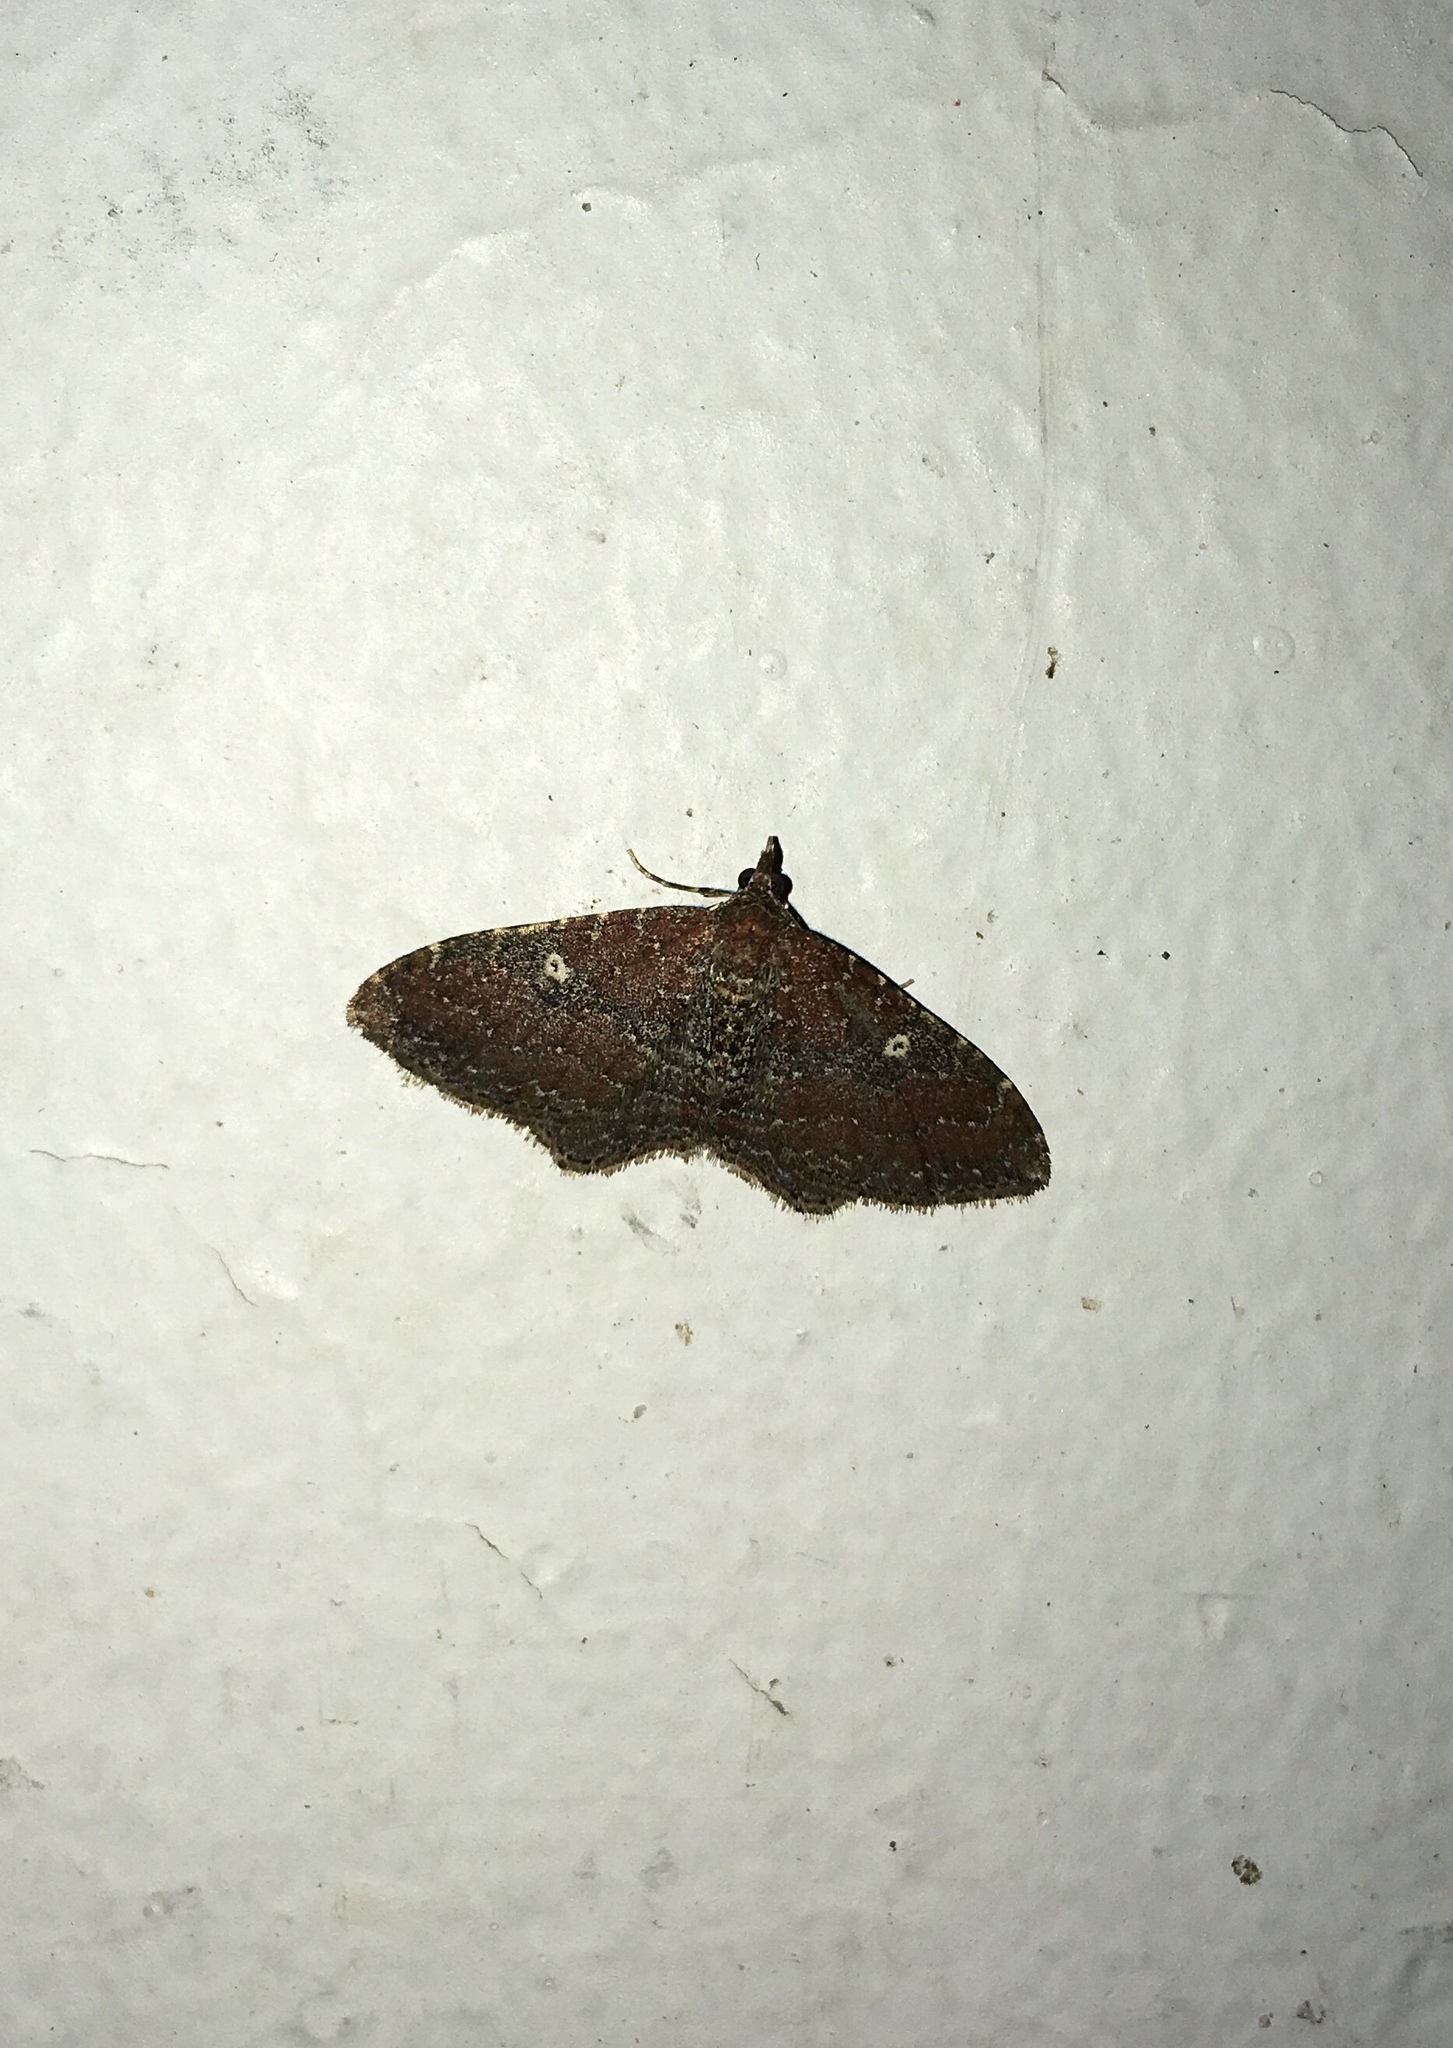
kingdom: Animalia
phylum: Arthropoda
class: Insecta
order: Lepidoptera
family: Geometridae
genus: Orthonama
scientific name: Orthonama obstipata
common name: The gem
